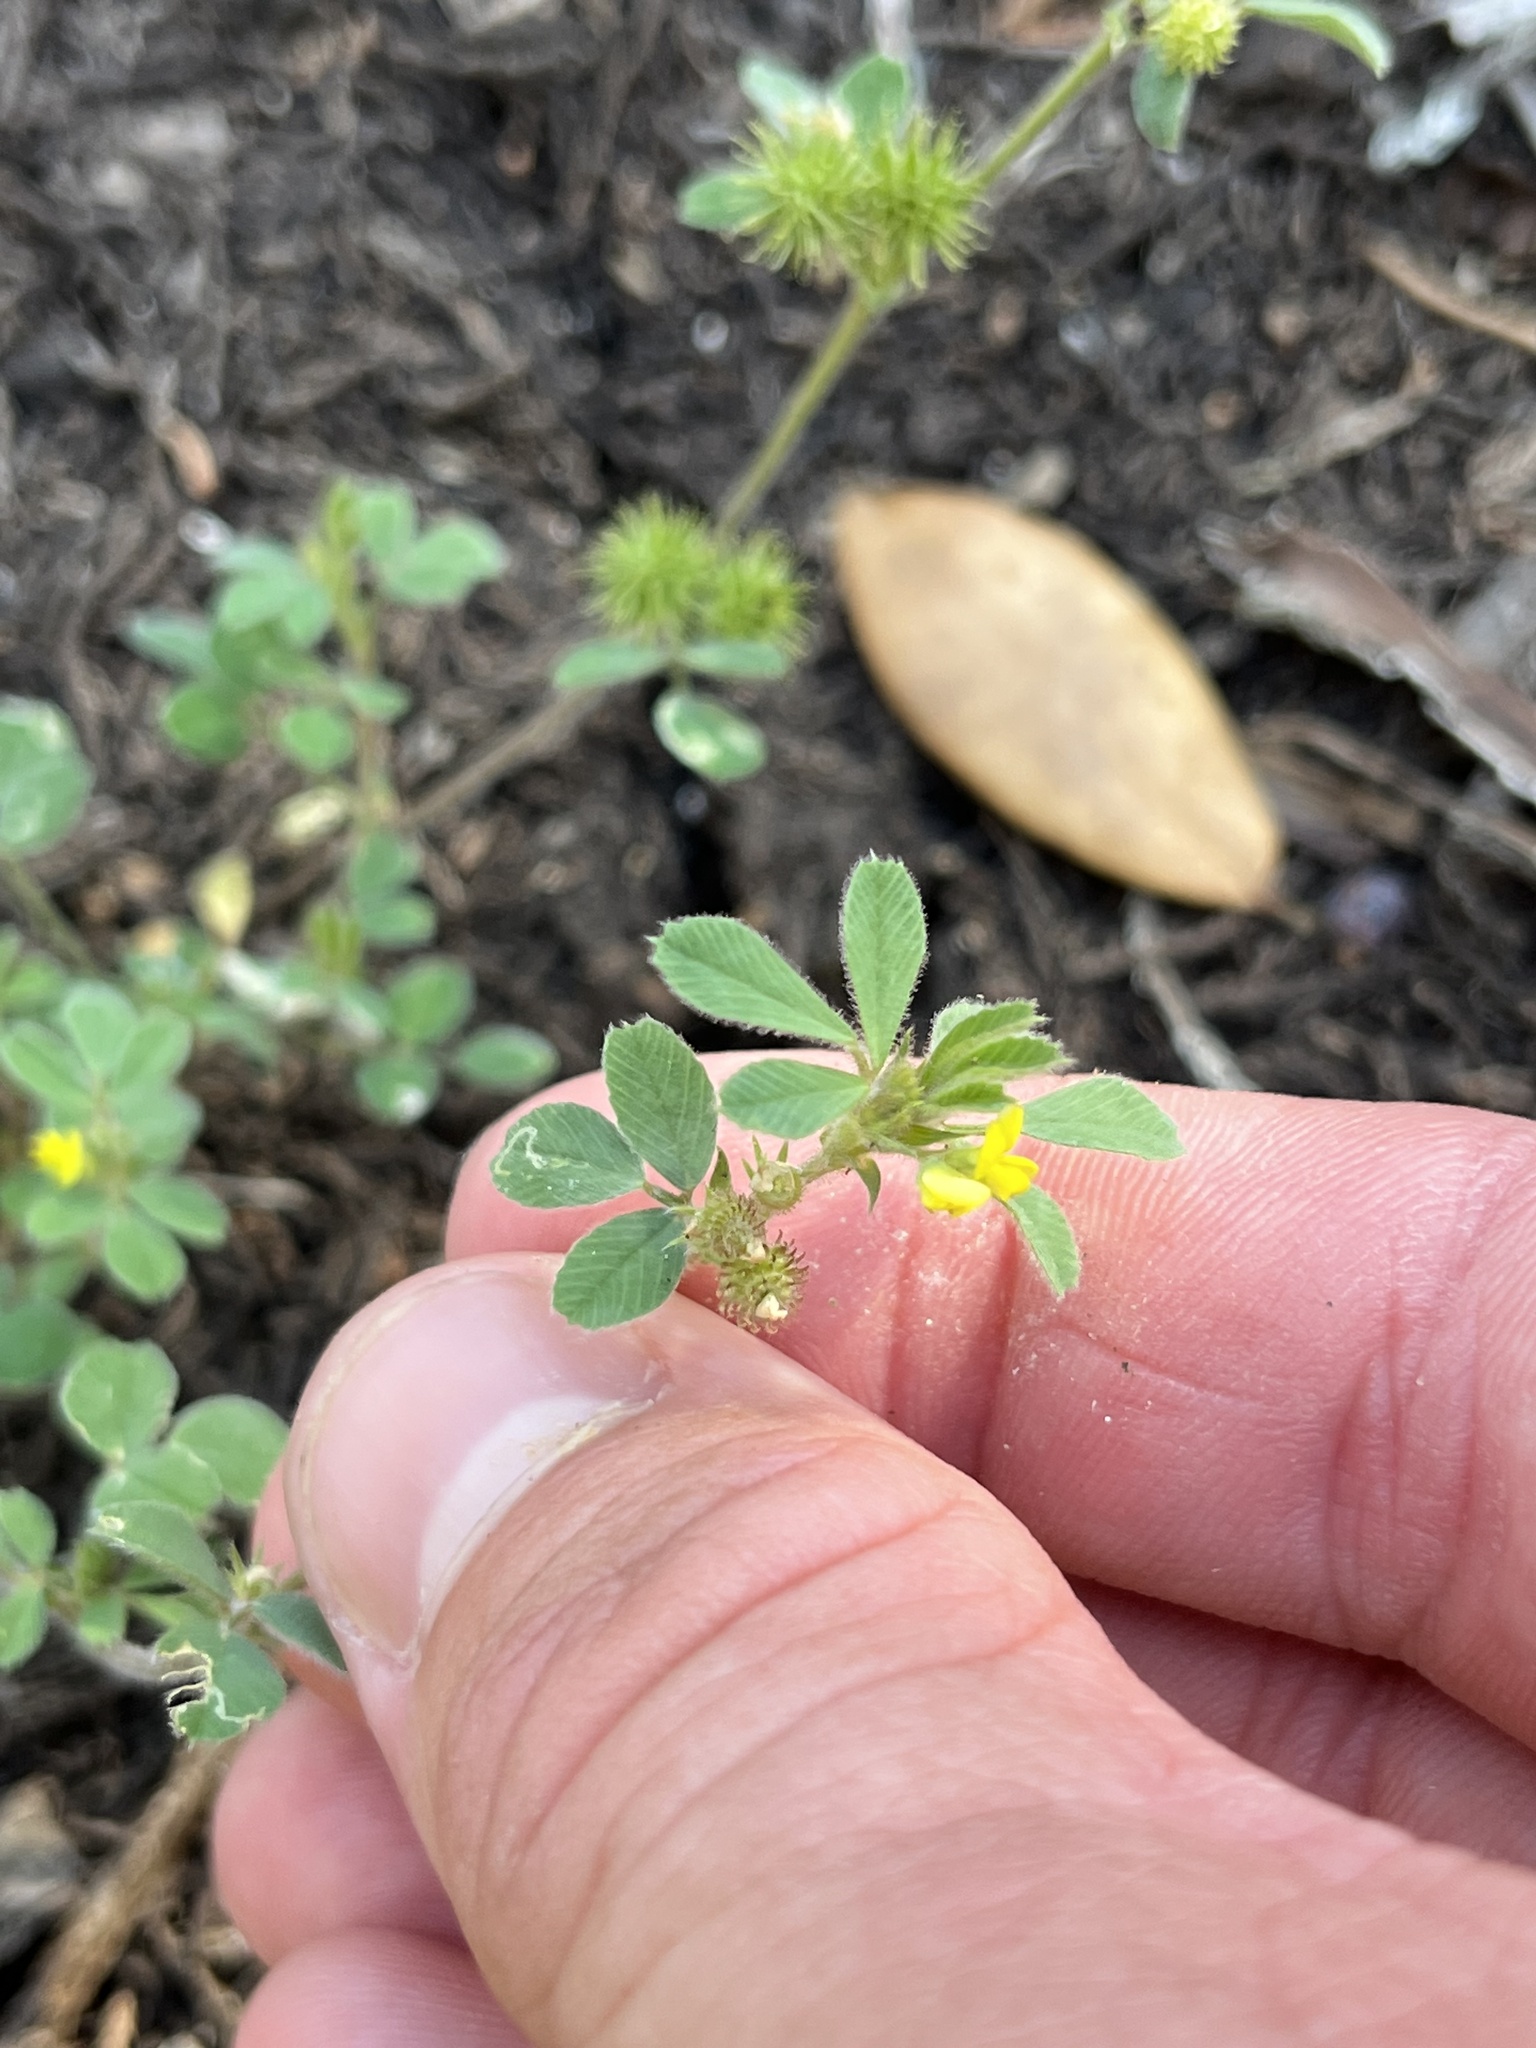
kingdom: Plantae
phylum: Tracheophyta
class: Magnoliopsida
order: Fabales
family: Fabaceae
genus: Medicago
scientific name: Medicago minima
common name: Little bur-clover
